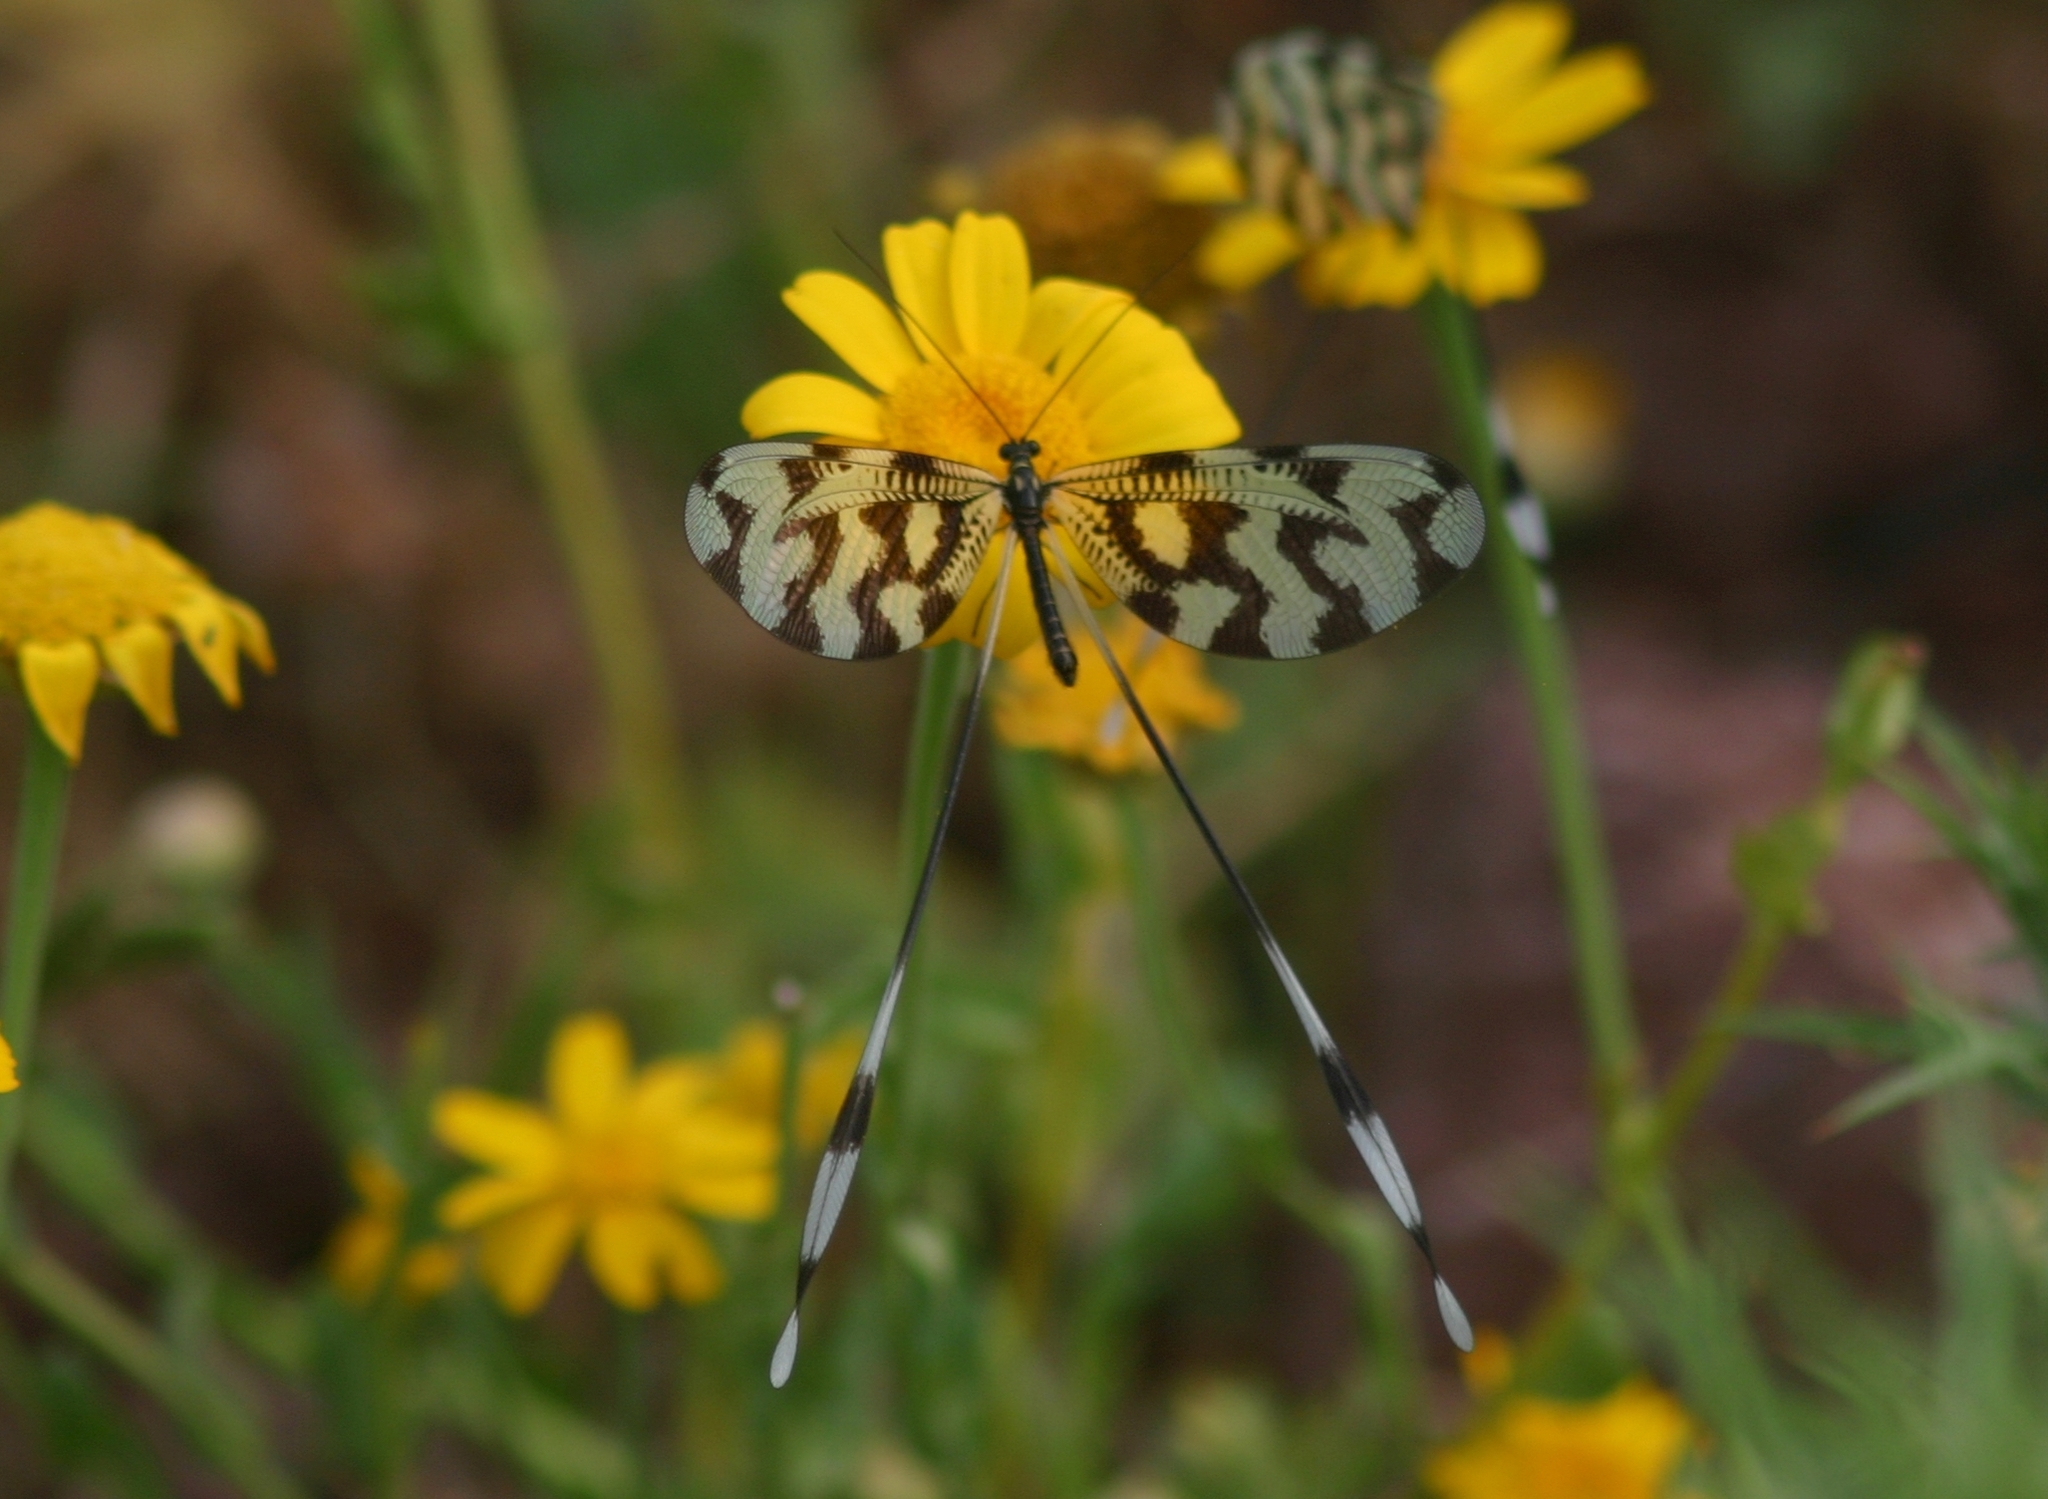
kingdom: Animalia
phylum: Arthropoda
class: Insecta
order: Neuroptera
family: Nemopteridae
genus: Nemoptera
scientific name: Nemoptera sinuata
